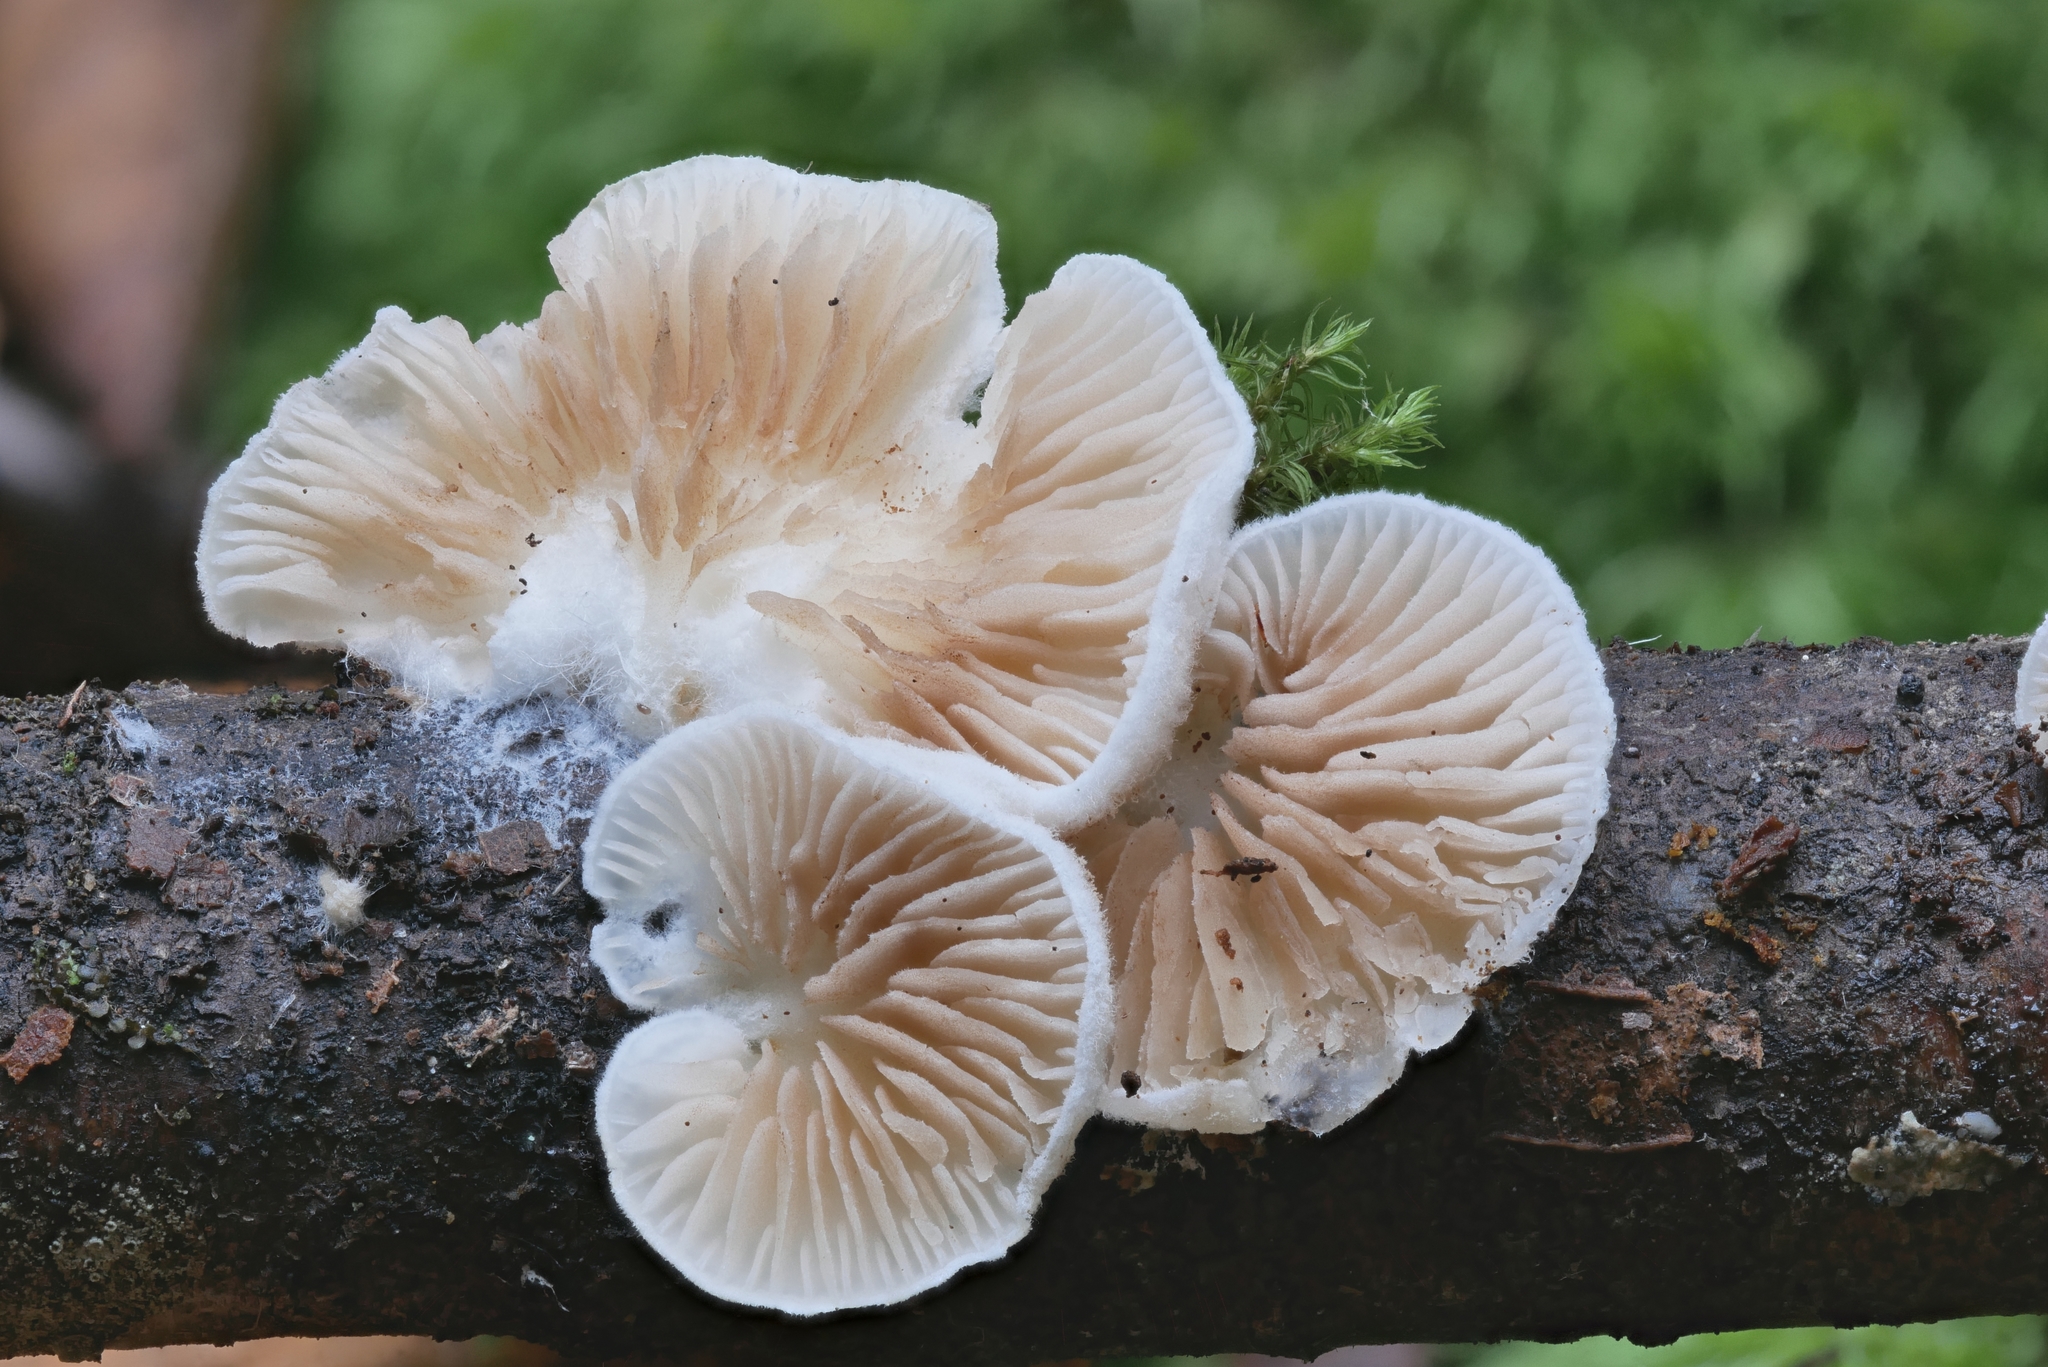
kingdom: Fungi
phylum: Basidiomycota
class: Agaricomycetes
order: Agaricales
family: Crepidotaceae
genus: Crepidotus
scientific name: Crepidotus applanatus
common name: Flat crep
